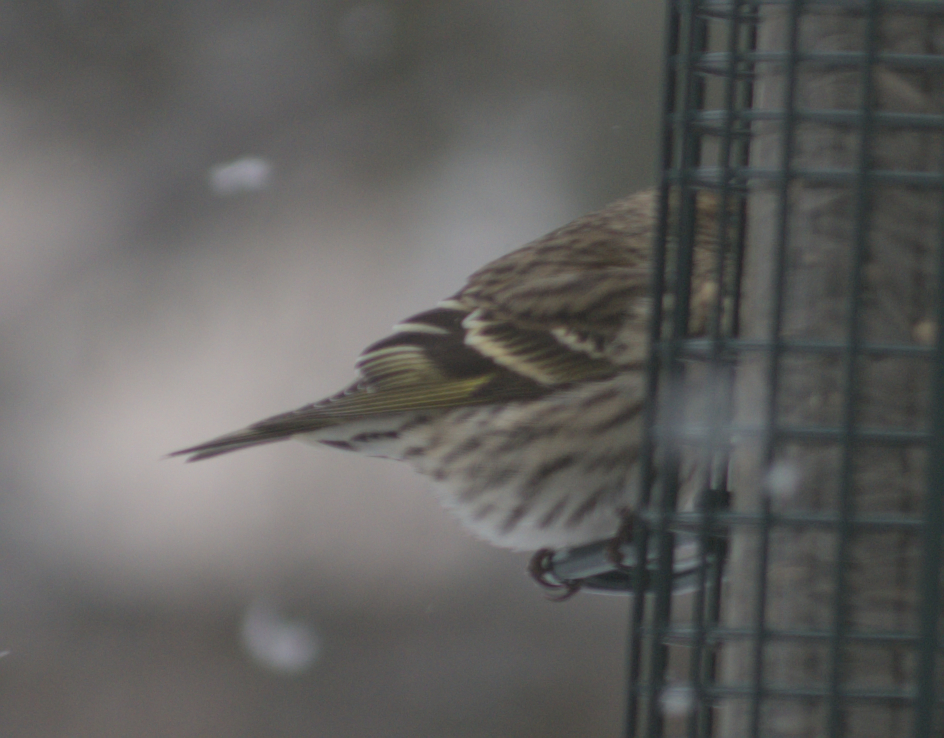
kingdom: Animalia
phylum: Chordata
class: Aves
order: Passeriformes
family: Fringillidae
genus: Spinus
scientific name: Spinus pinus
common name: Pine siskin
